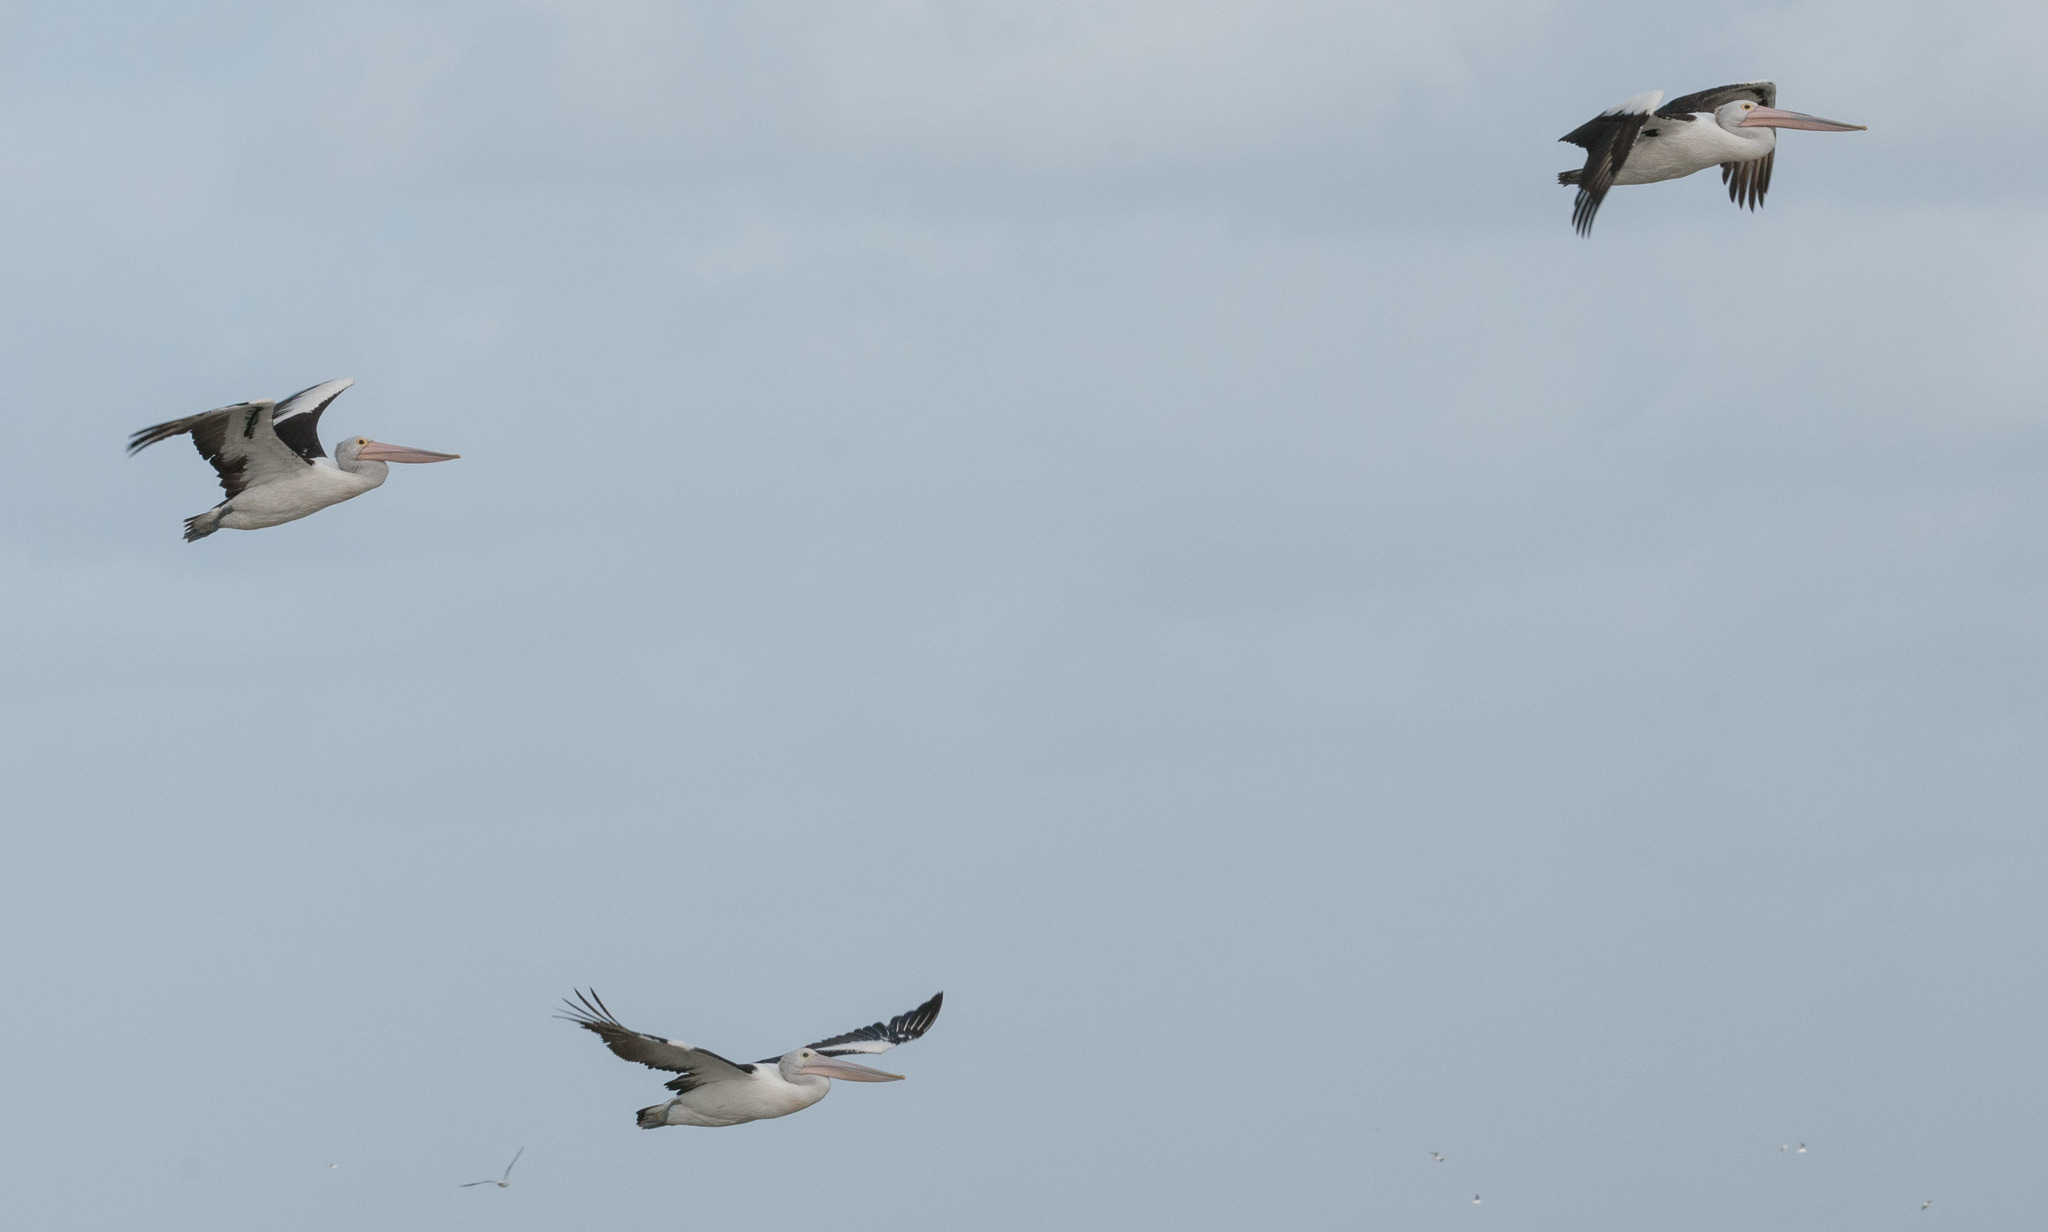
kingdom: Animalia
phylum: Chordata
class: Aves
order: Pelecaniformes
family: Pelecanidae
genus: Pelecanus
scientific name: Pelecanus conspicillatus
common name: Australian pelican
